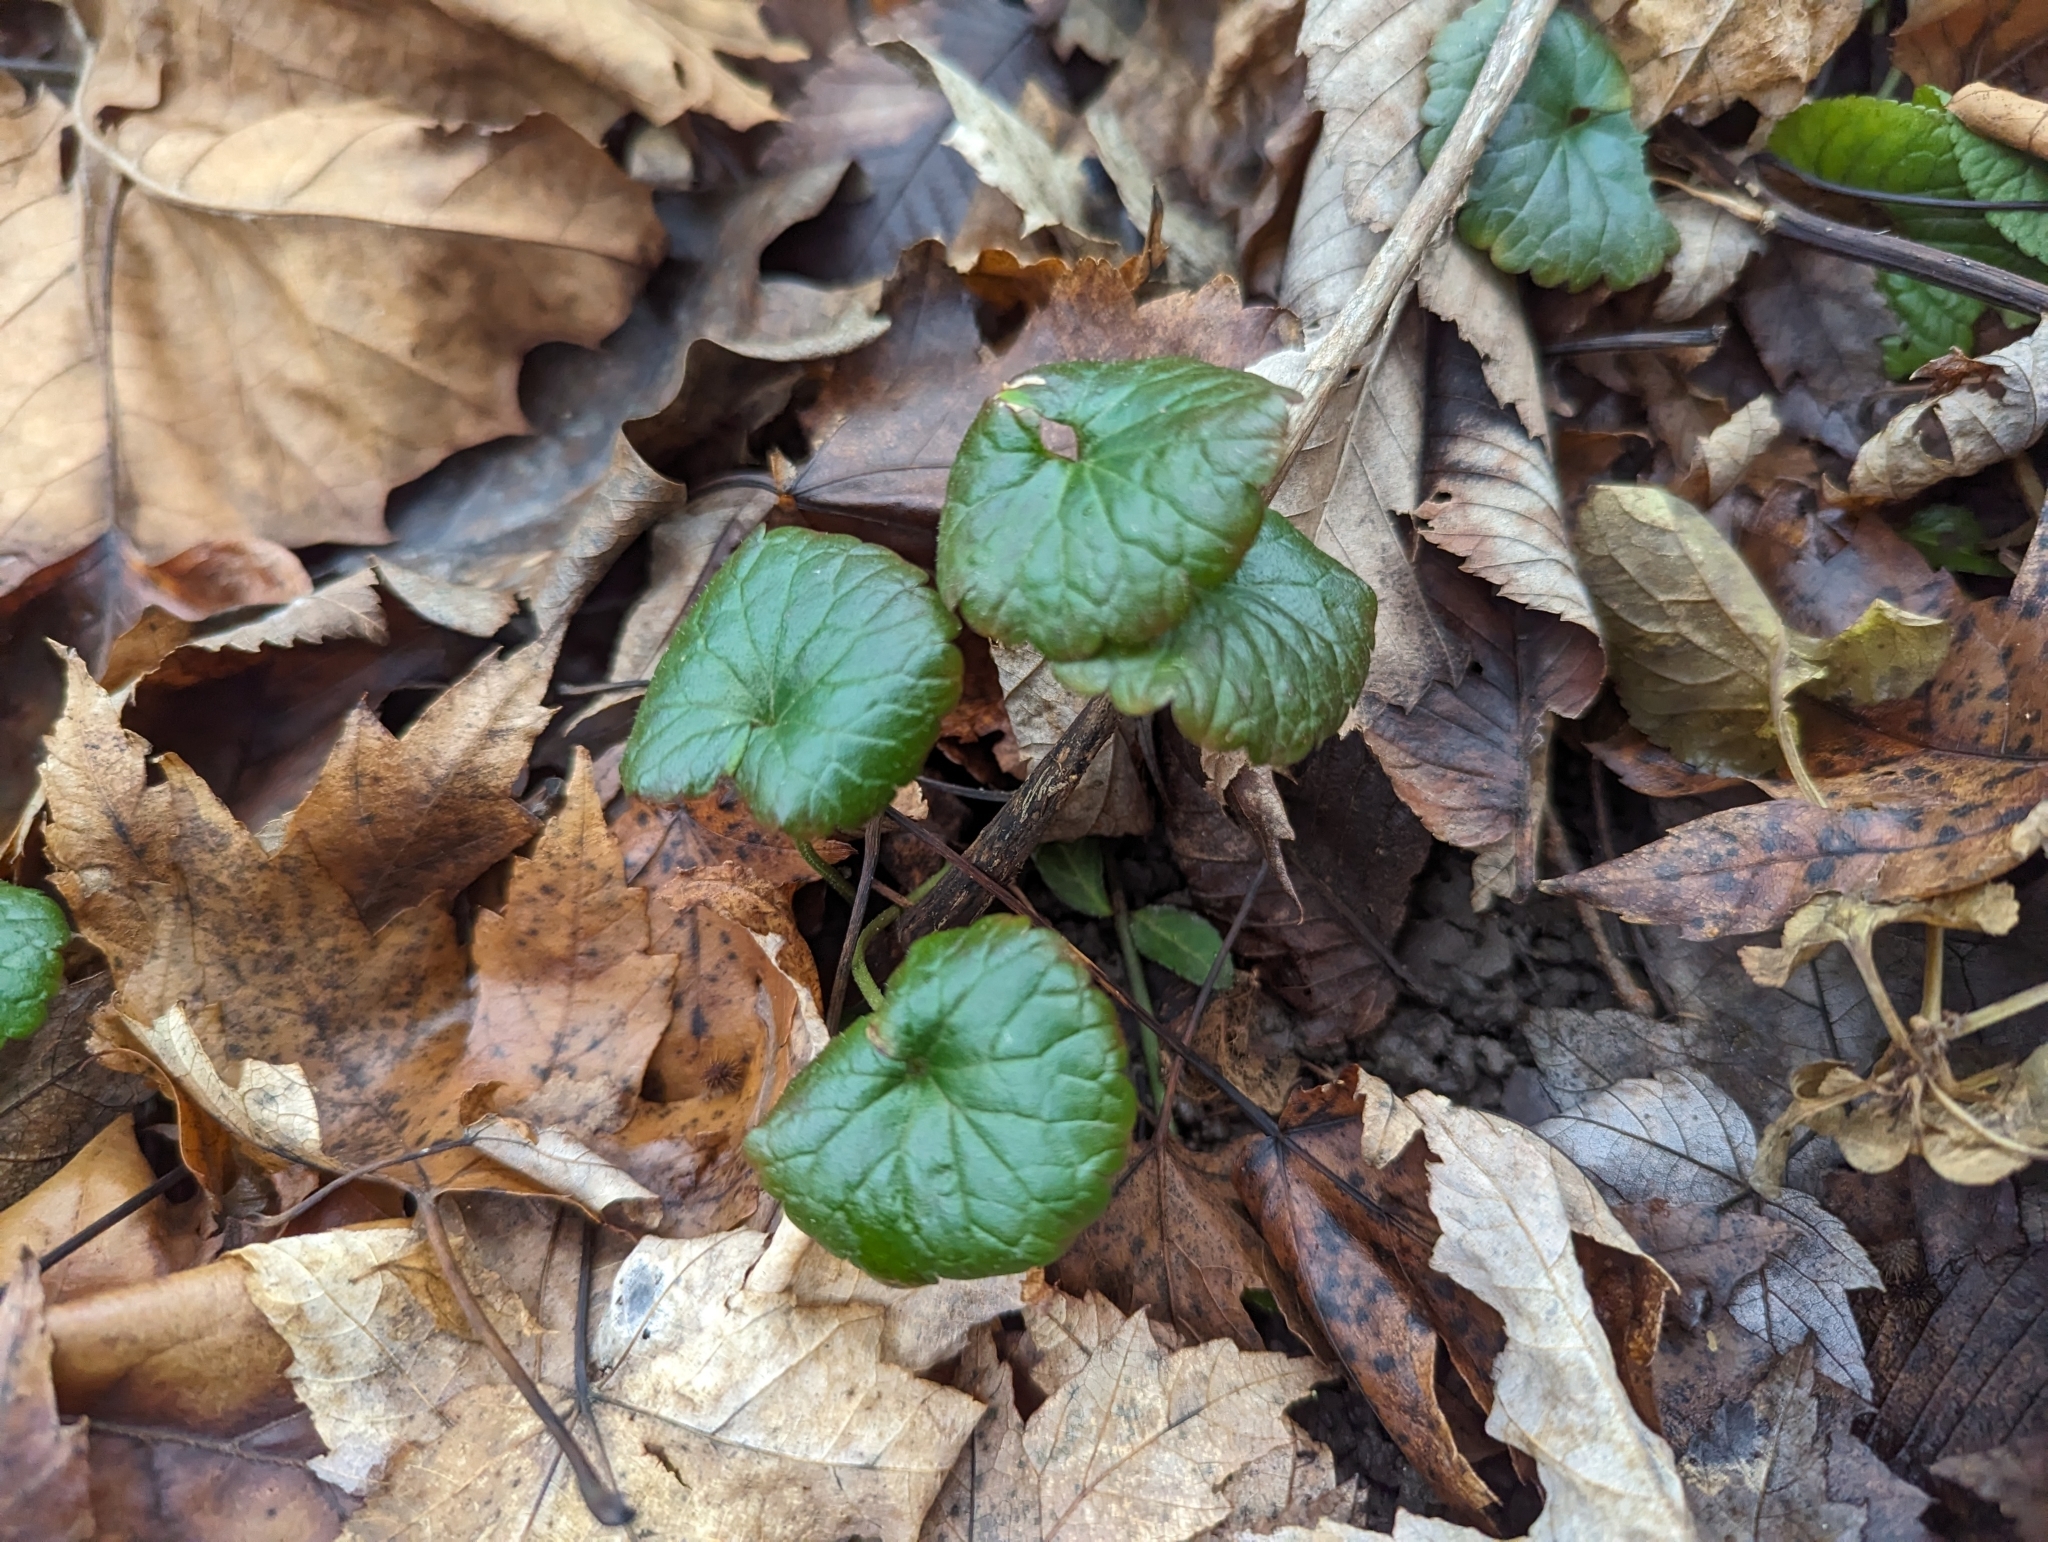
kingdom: Plantae
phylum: Tracheophyta
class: Magnoliopsida
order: Lamiales
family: Lamiaceae
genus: Glechoma
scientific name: Glechoma hederacea
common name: Ground ivy
